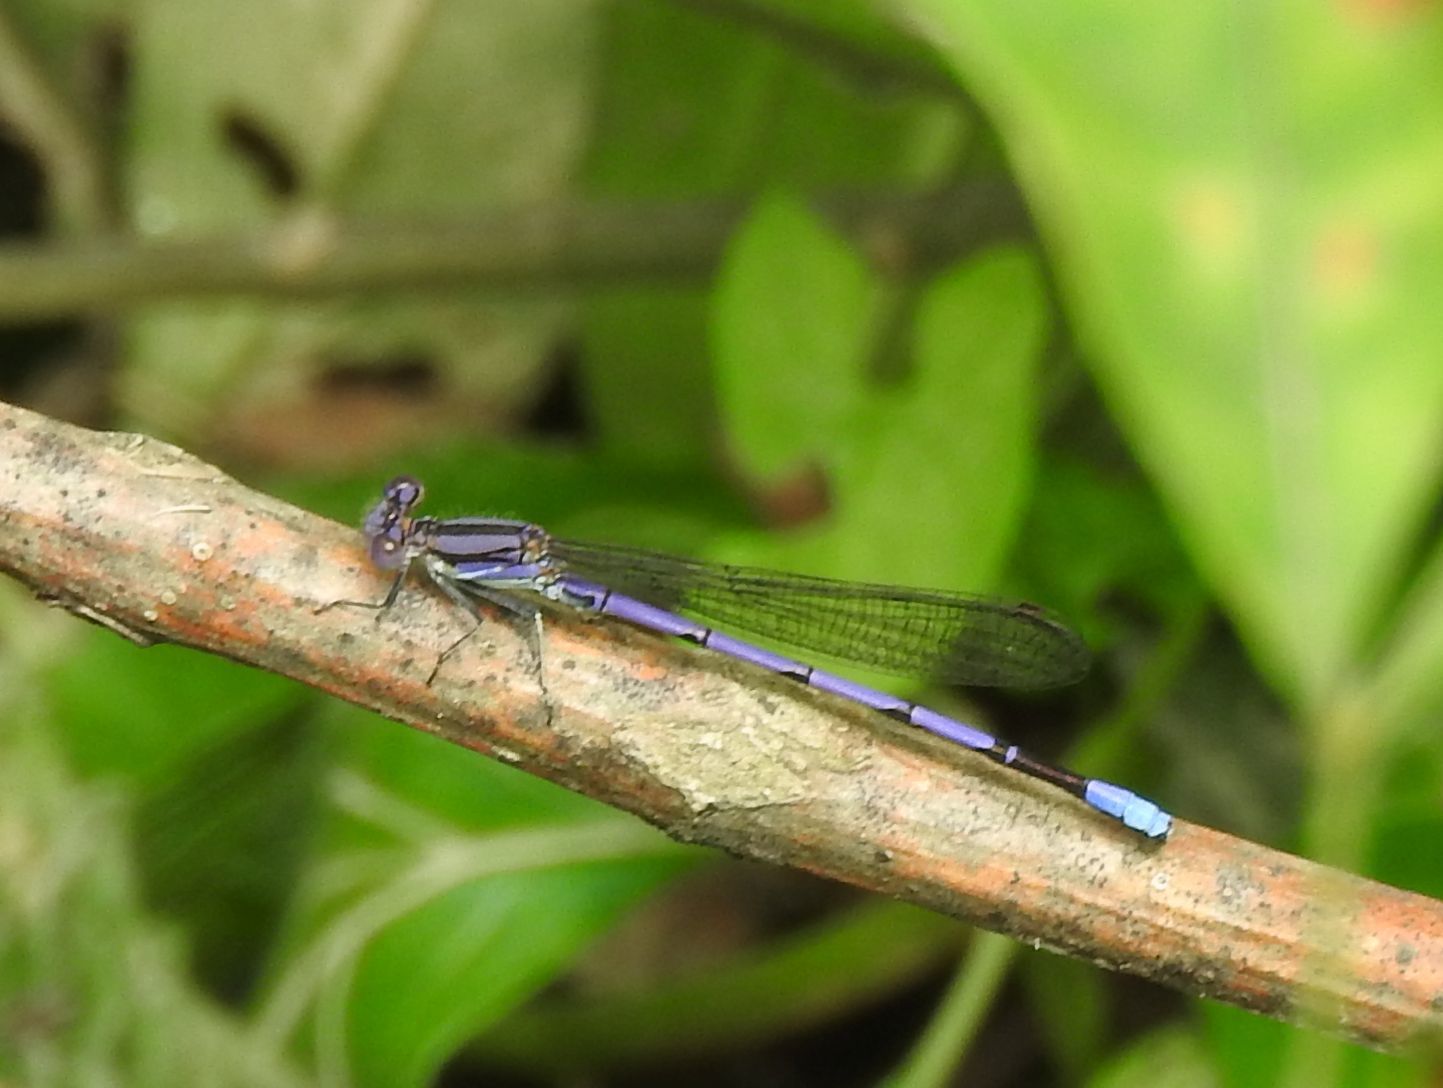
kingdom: Animalia
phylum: Arthropoda
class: Insecta
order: Odonata
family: Coenagrionidae
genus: Argia
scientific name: Argia fumipennis
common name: Variable dancer
